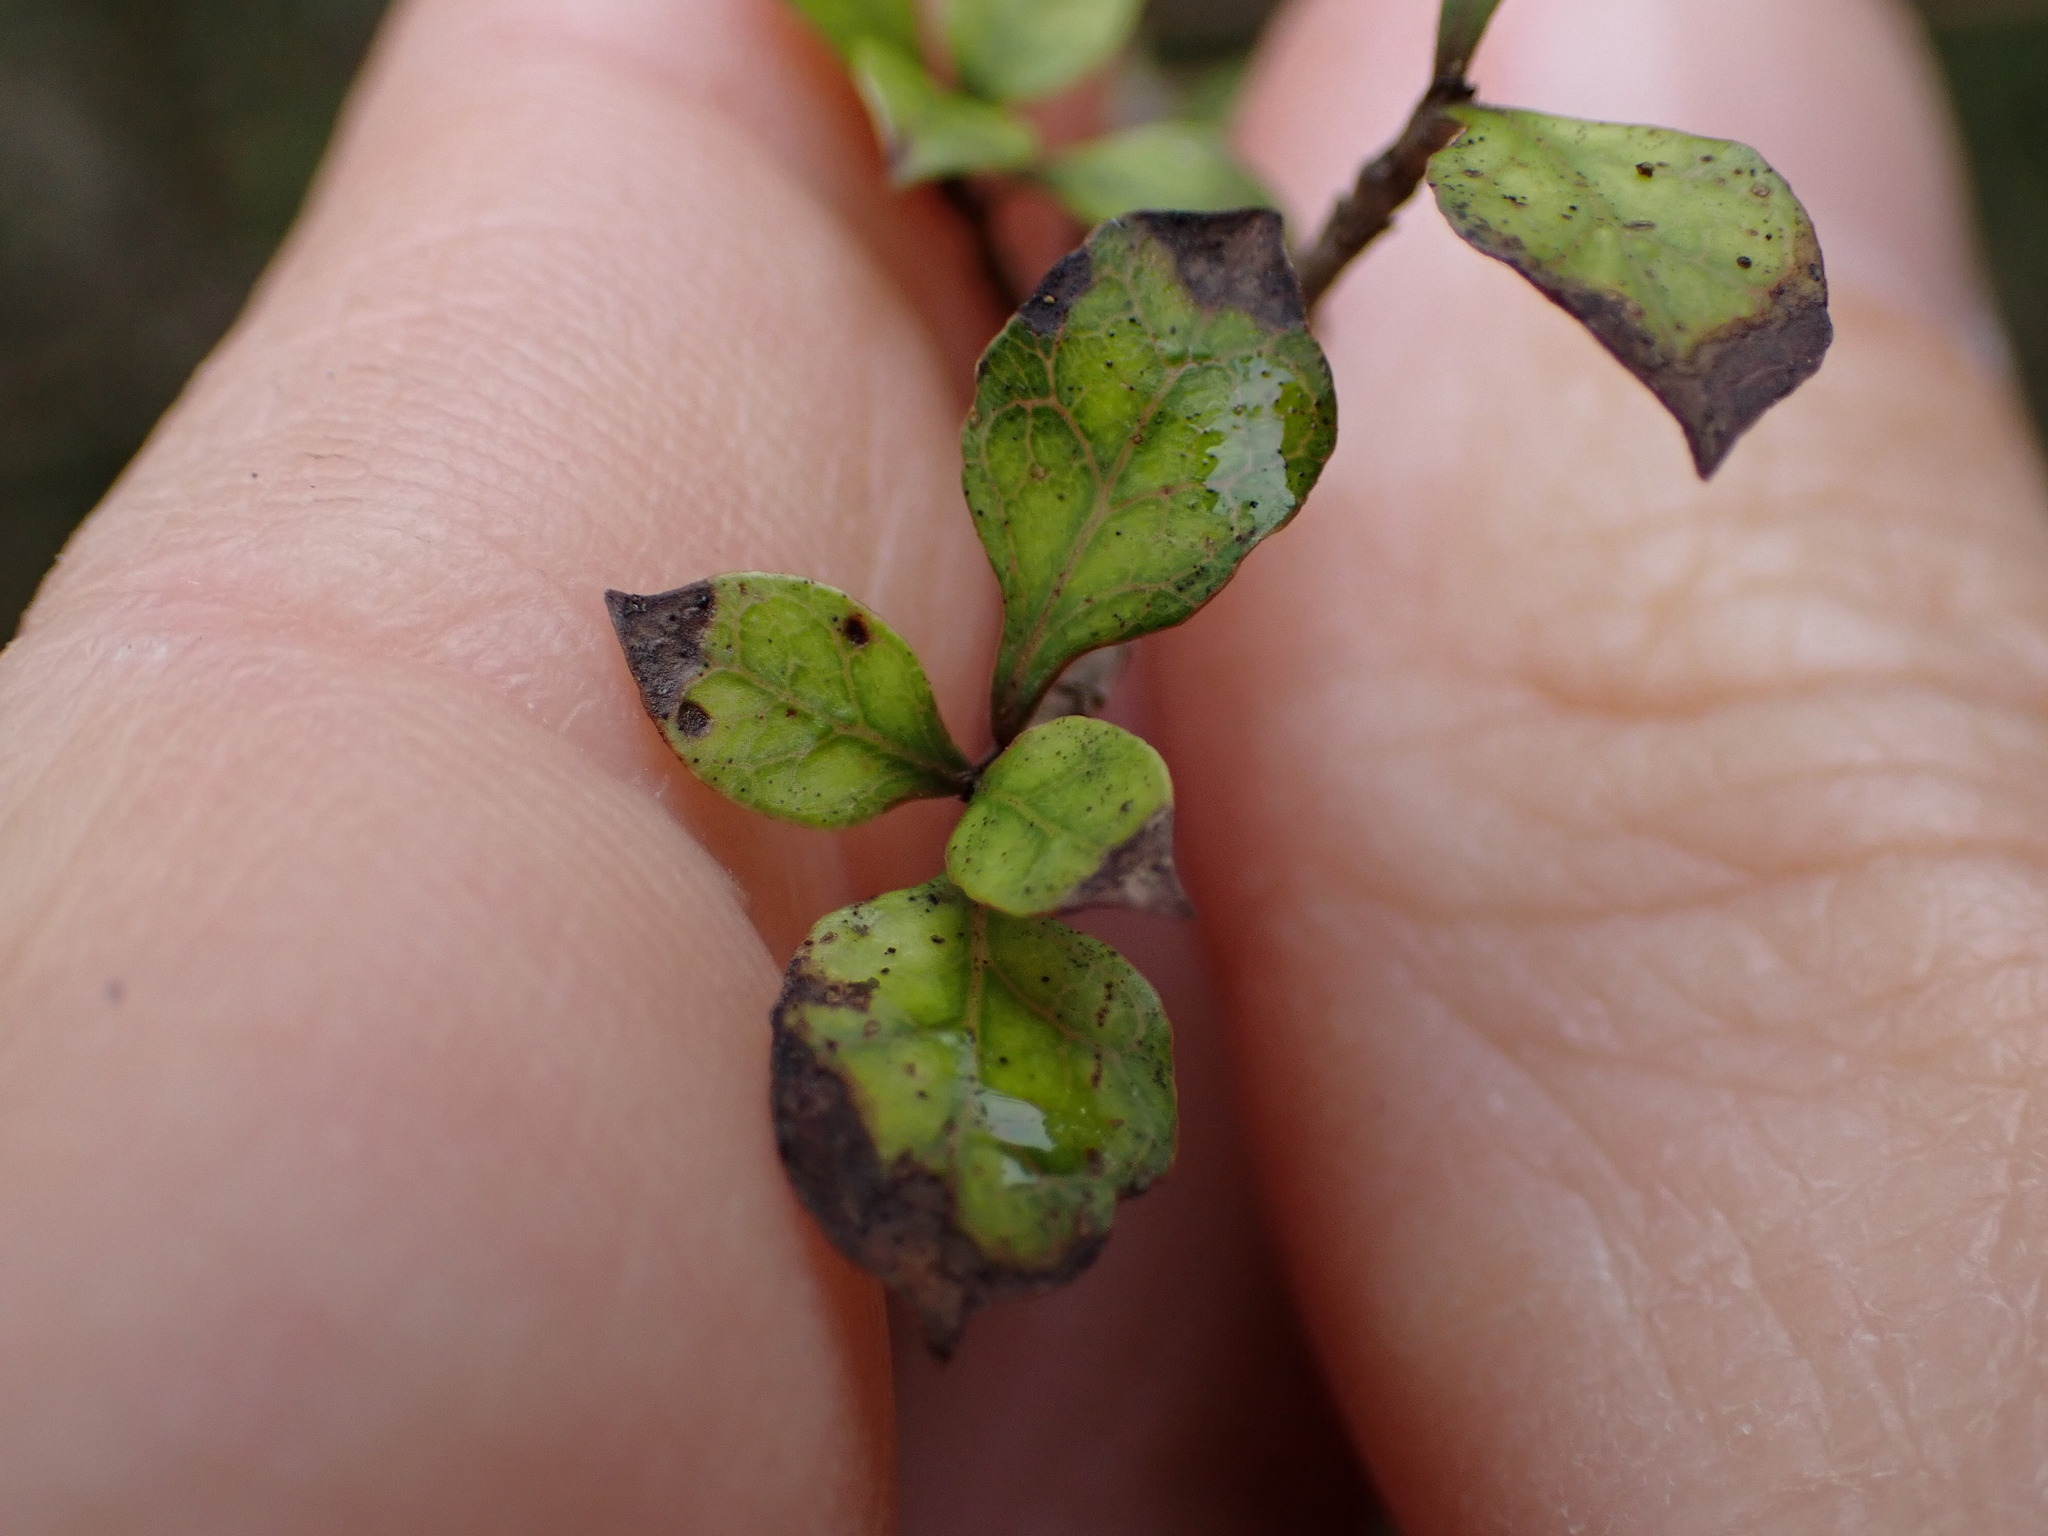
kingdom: Plantae
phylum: Tracheophyta
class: Magnoliopsida
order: Gentianales
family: Rubiaceae
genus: Coprosma
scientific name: Coprosma areolata
